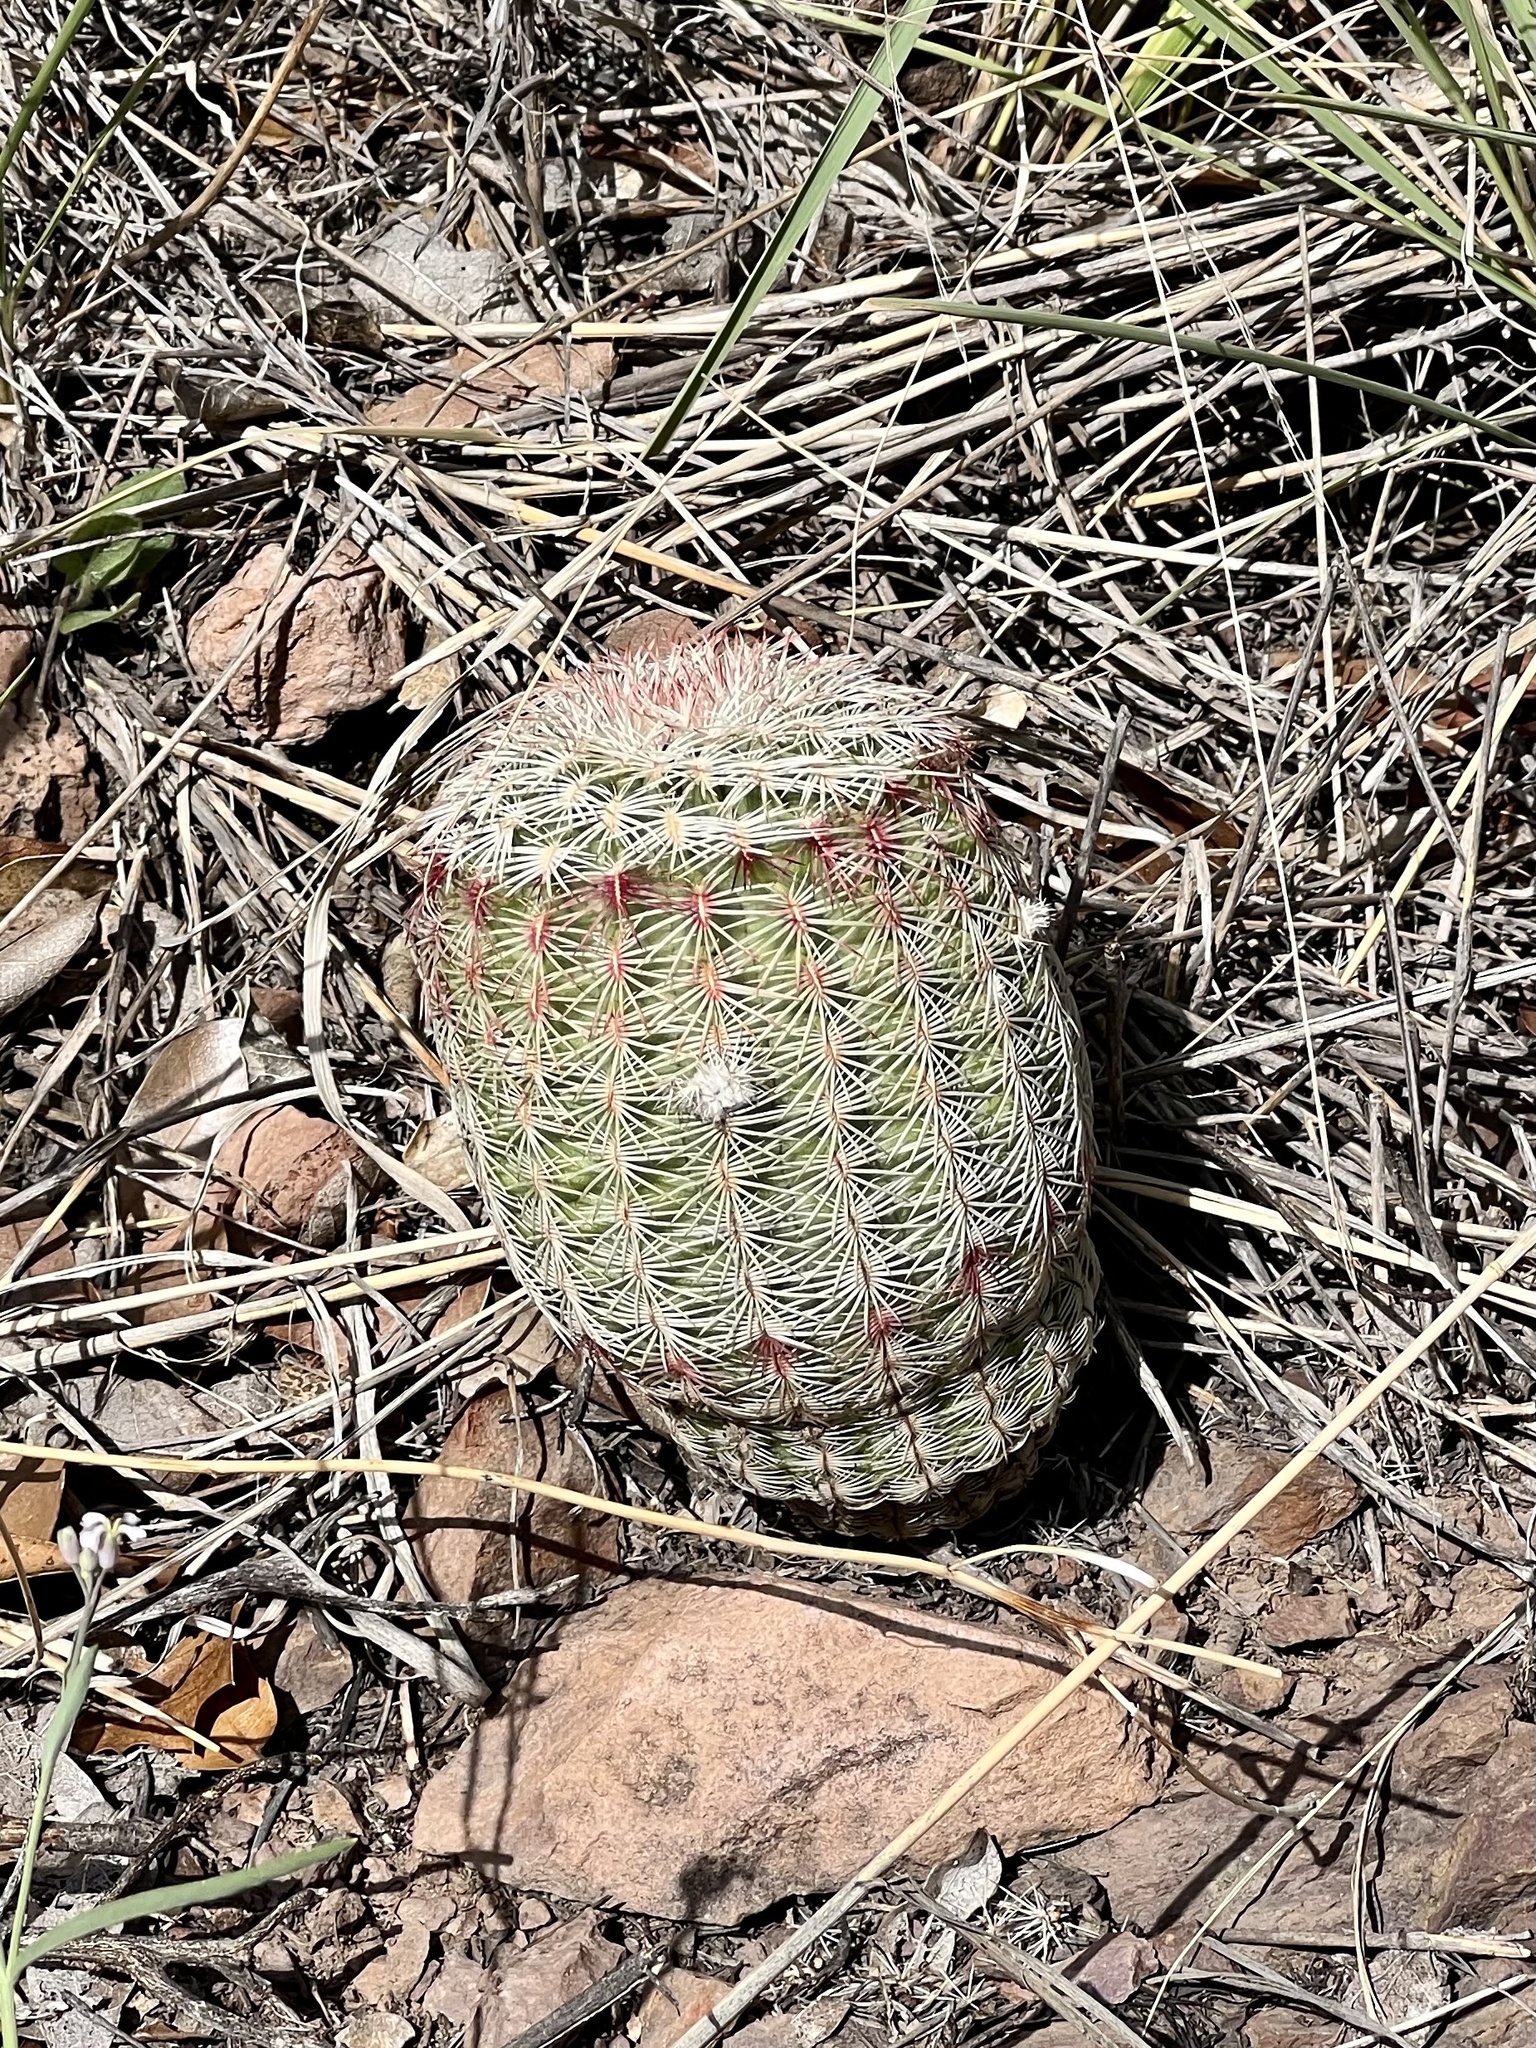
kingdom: Plantae
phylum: Tracheophyta
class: Magnoliopsida
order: Caryophyllales
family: Cactaceae
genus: Echinocereus
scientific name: Echinocereus rigidissimus
